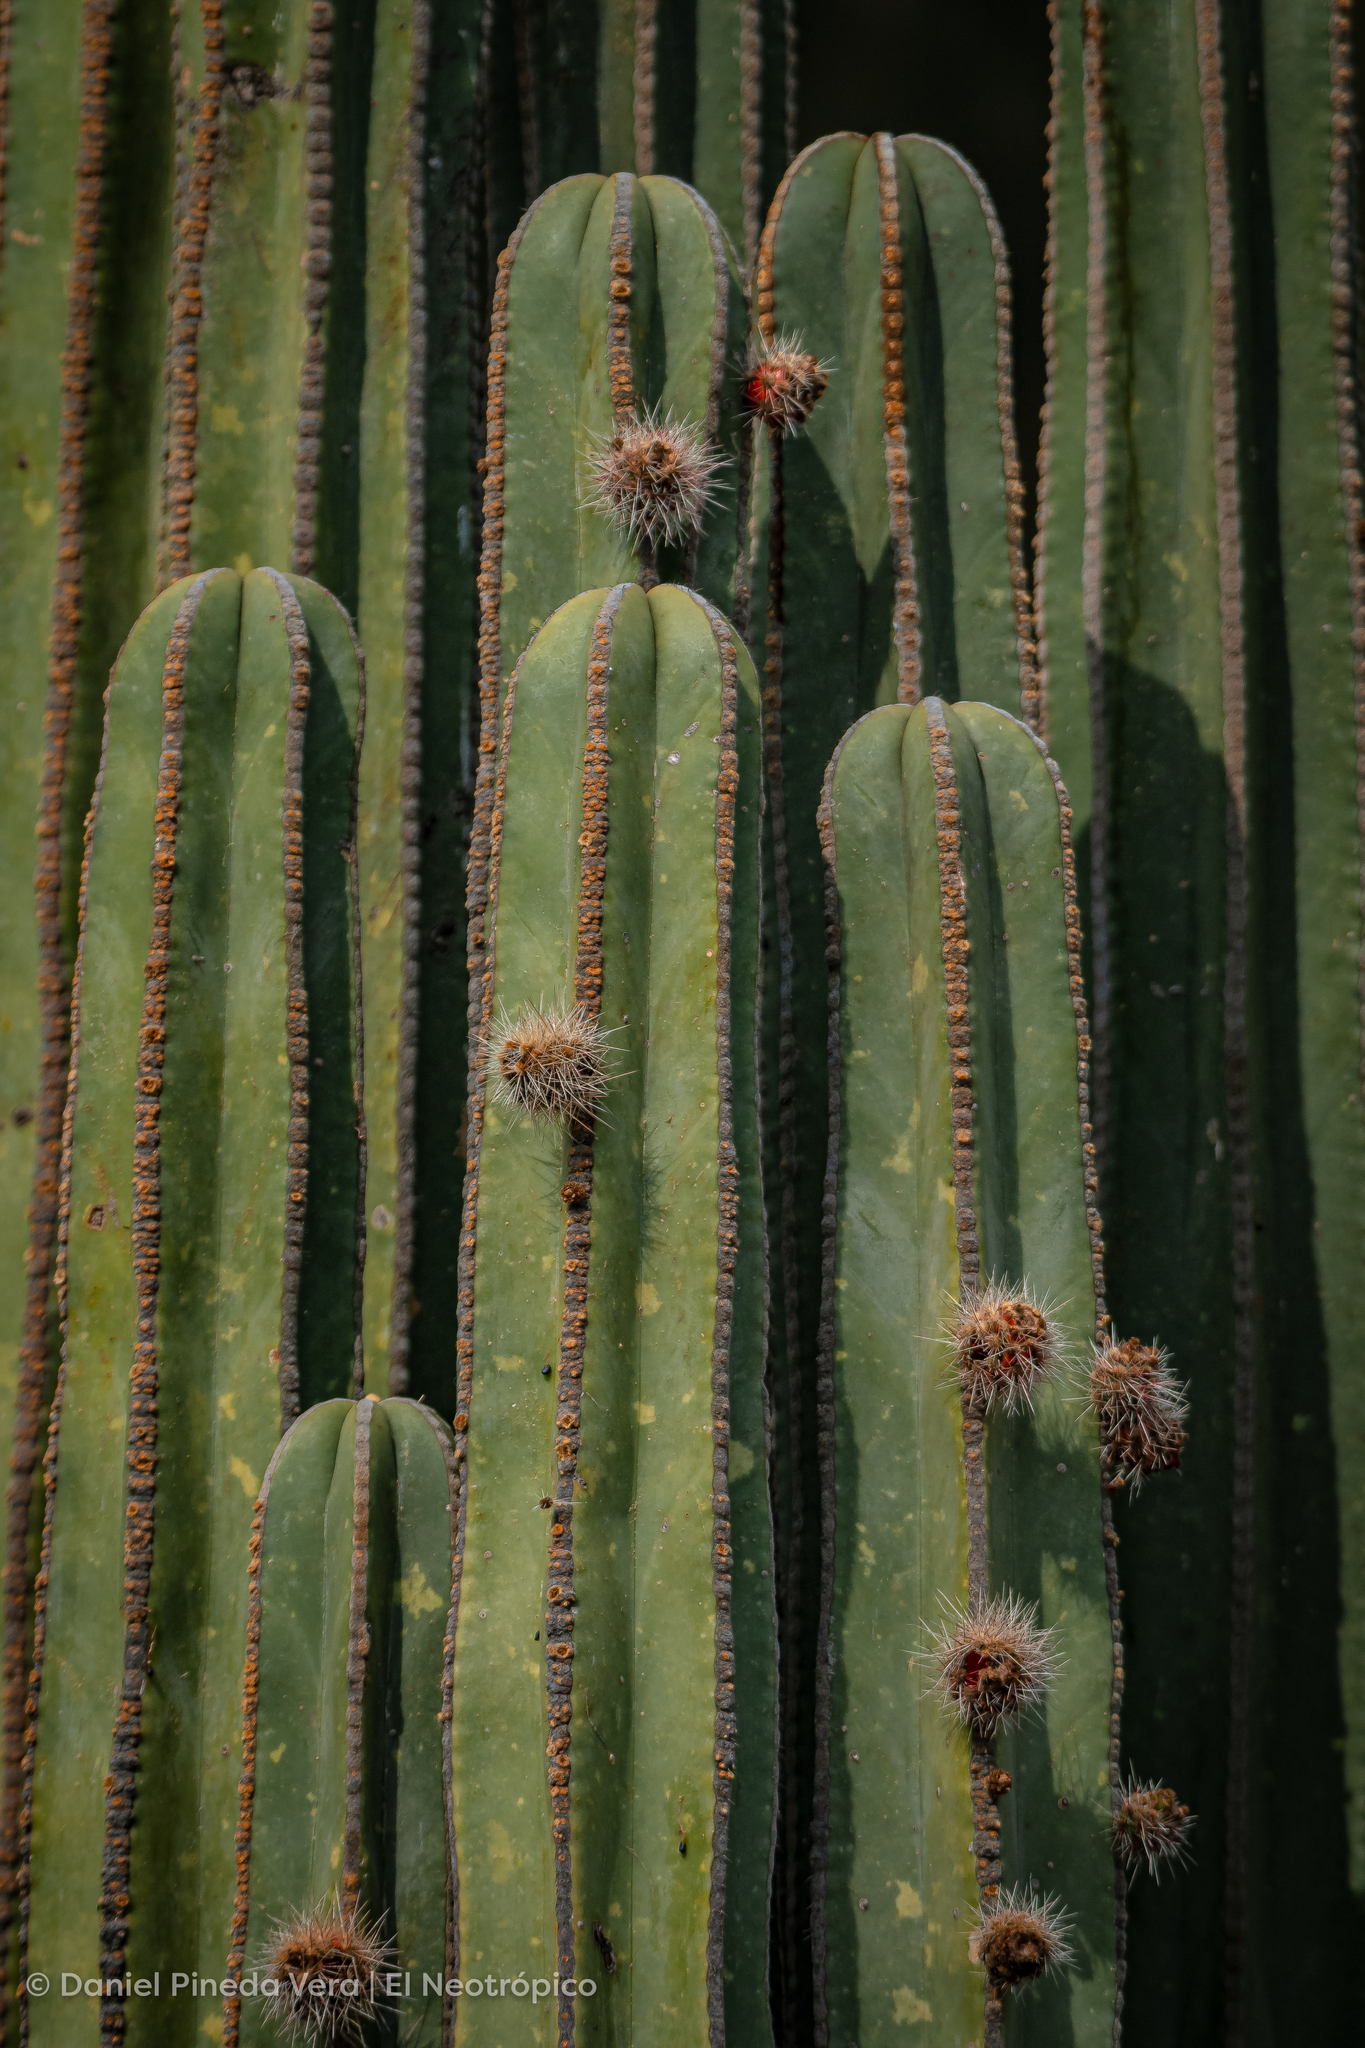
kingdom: Plantae
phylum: Tracheophyta
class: Magnoliopsida
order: Caryophyllales
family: Cactaceae
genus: Marginatocereus
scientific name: Marginatocereus marginatus
